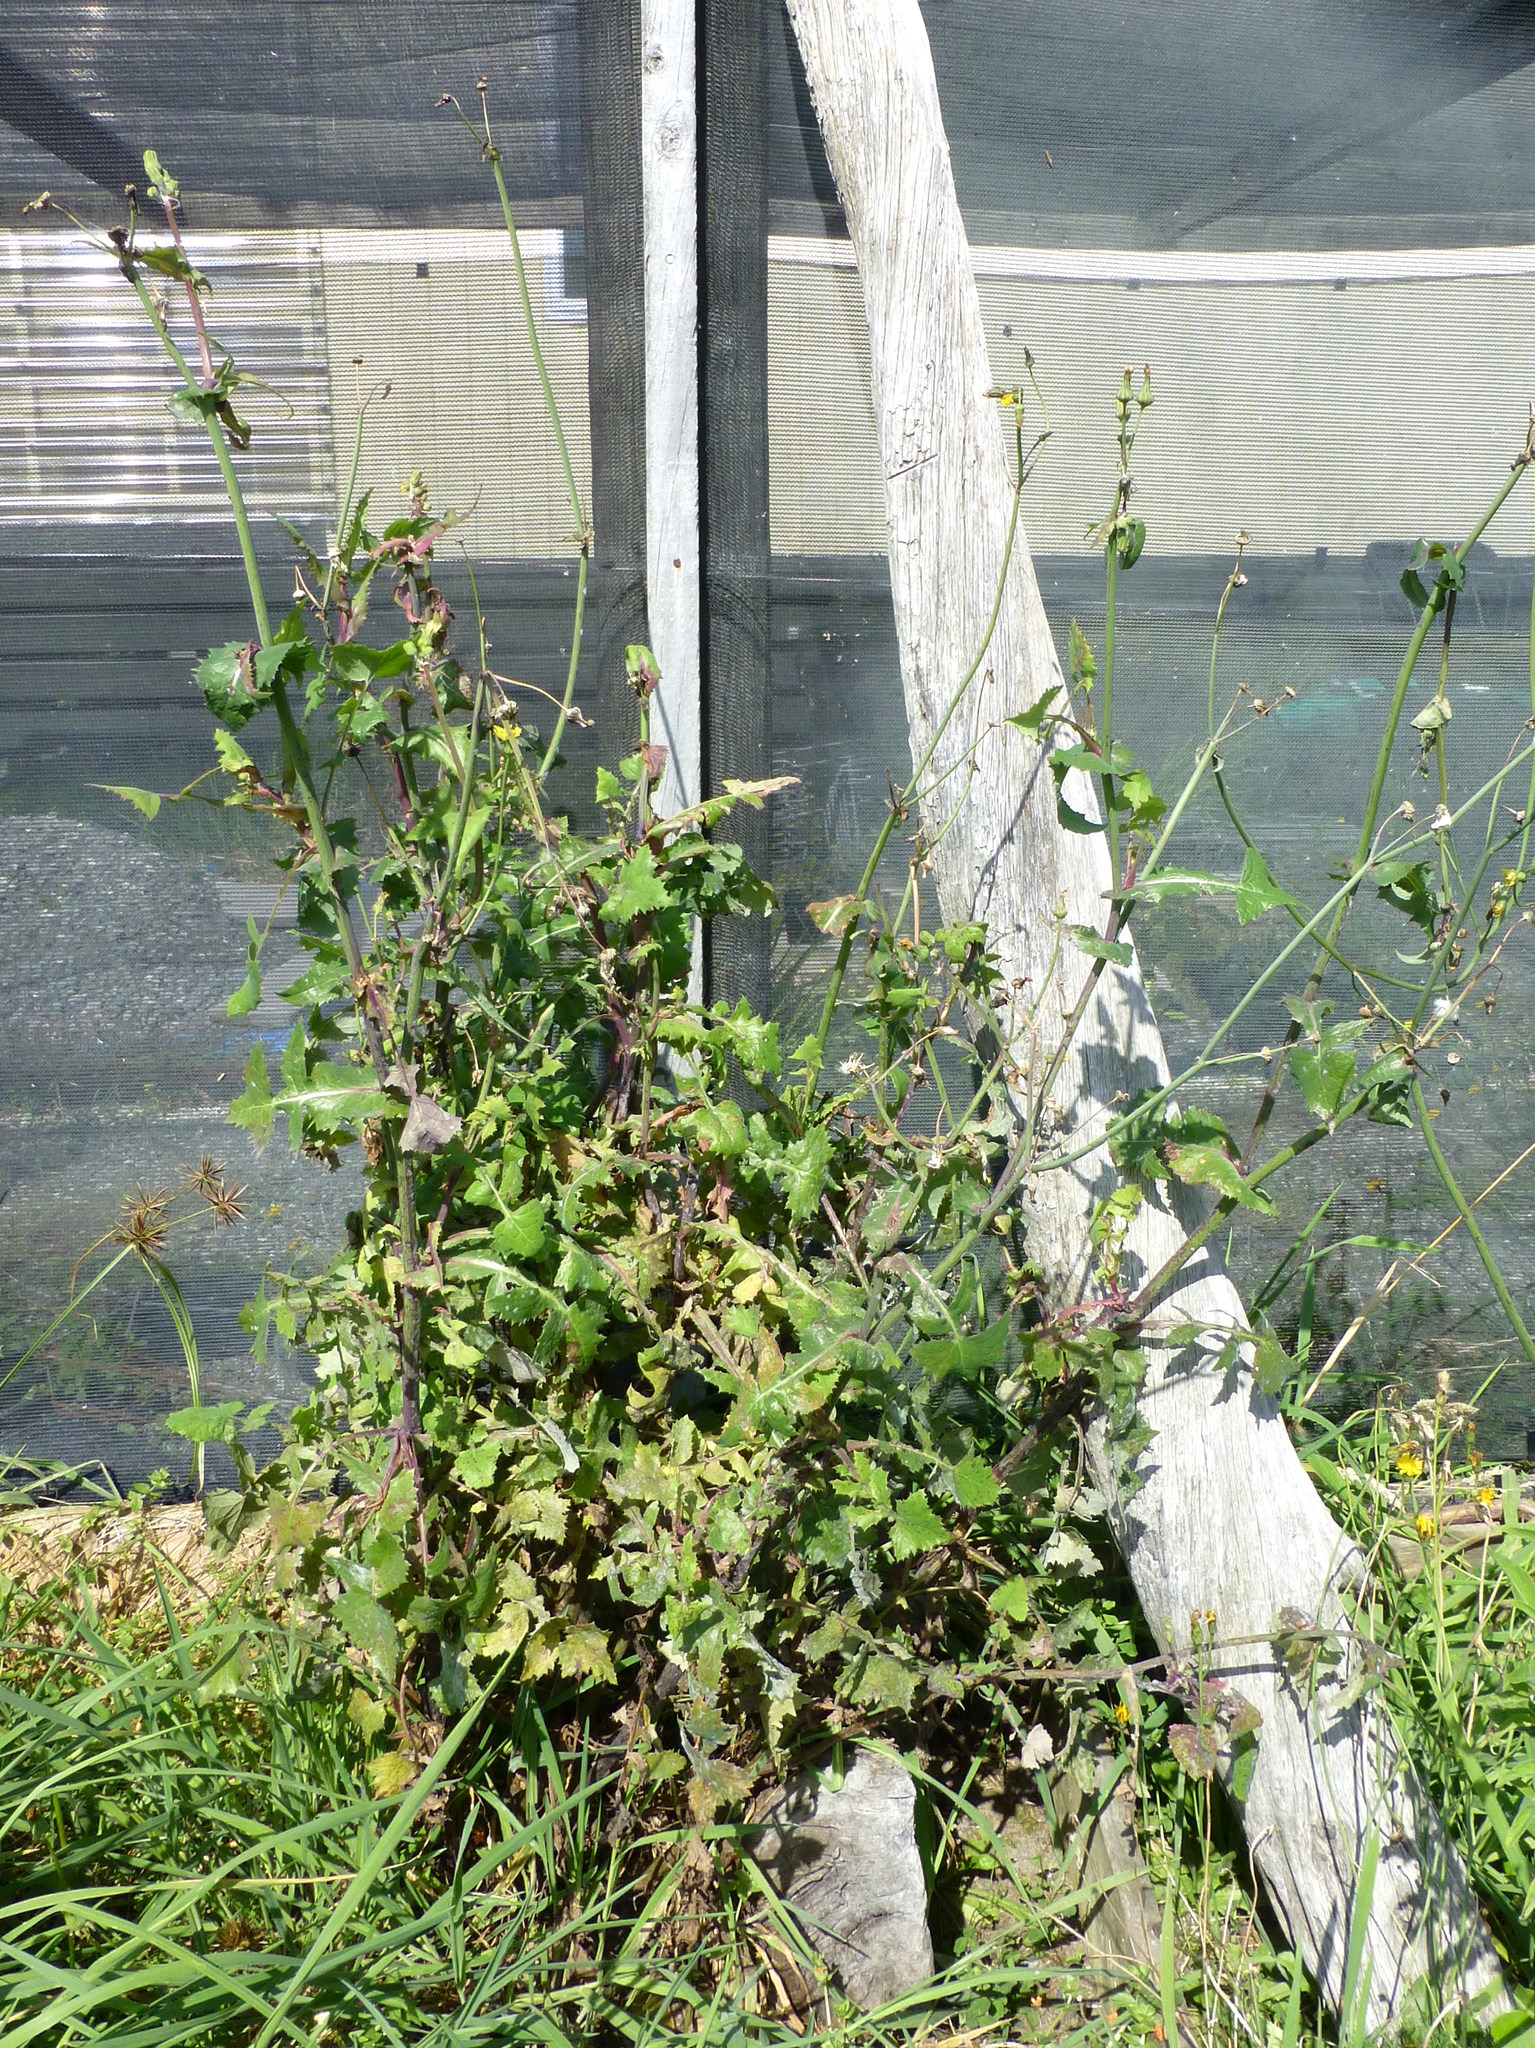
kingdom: Plantae
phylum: Tracheophyta
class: Magnoliopsida
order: Asterales
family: Asteraceae
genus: Sonchus
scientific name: Sonchus oleraceus
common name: Common sowthistle
